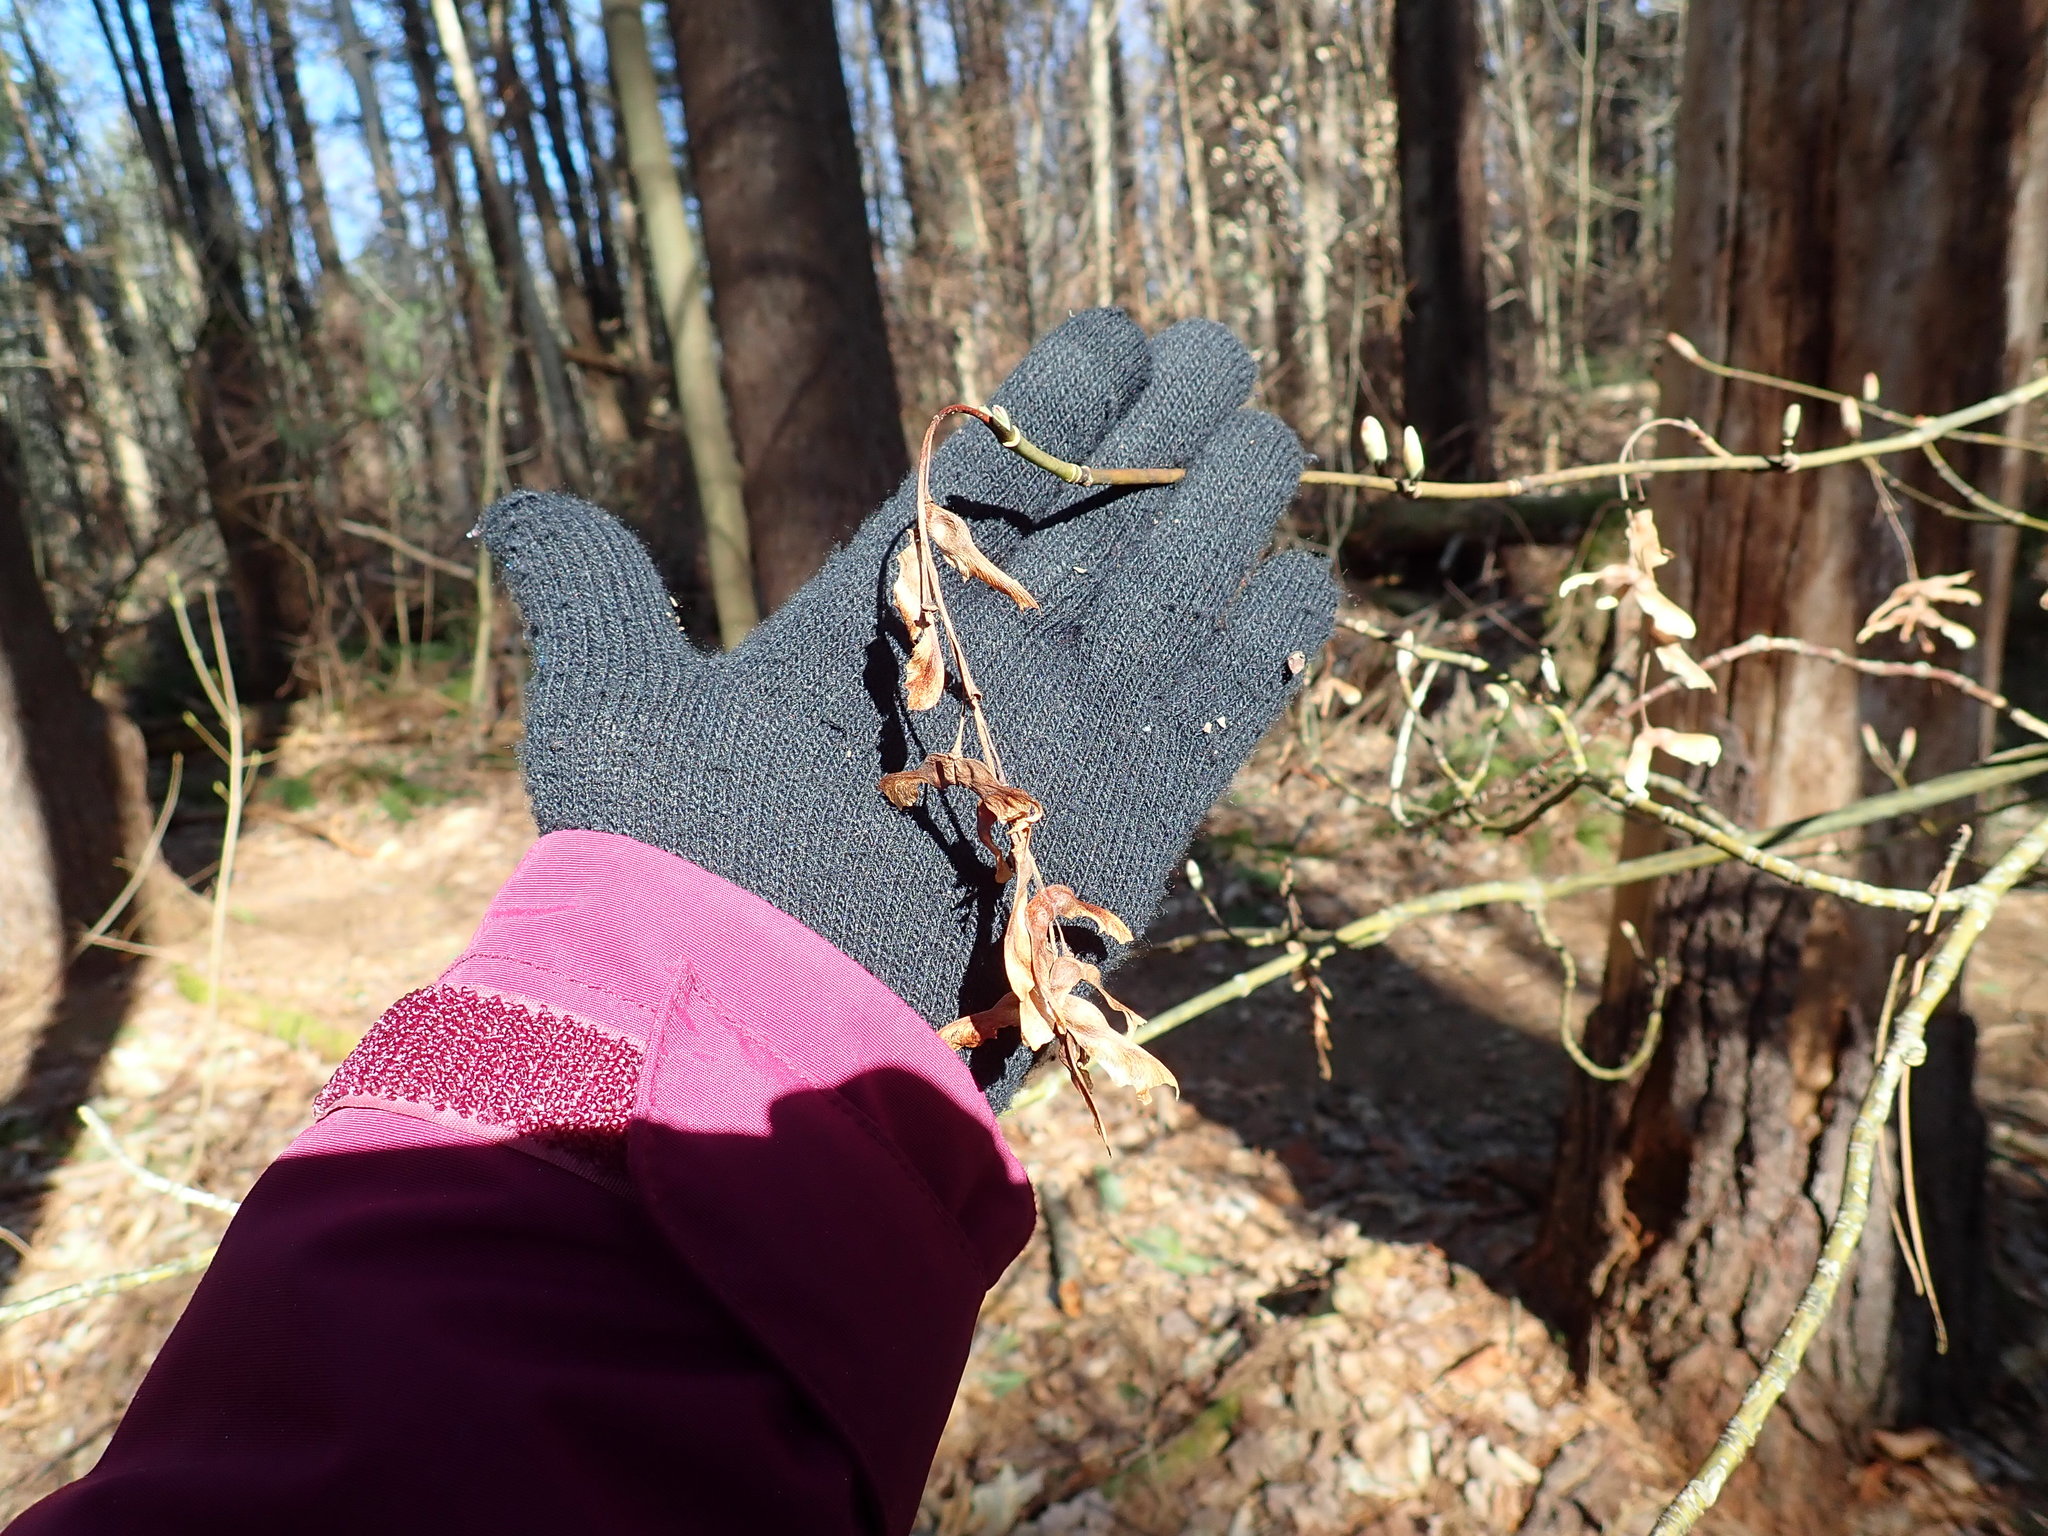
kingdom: Plantae
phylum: Tracheophyta
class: Magnoliopsida
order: Sapindales
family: Sapindaceae
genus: Acer
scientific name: Acer pensylvanicum
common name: Moosewood
